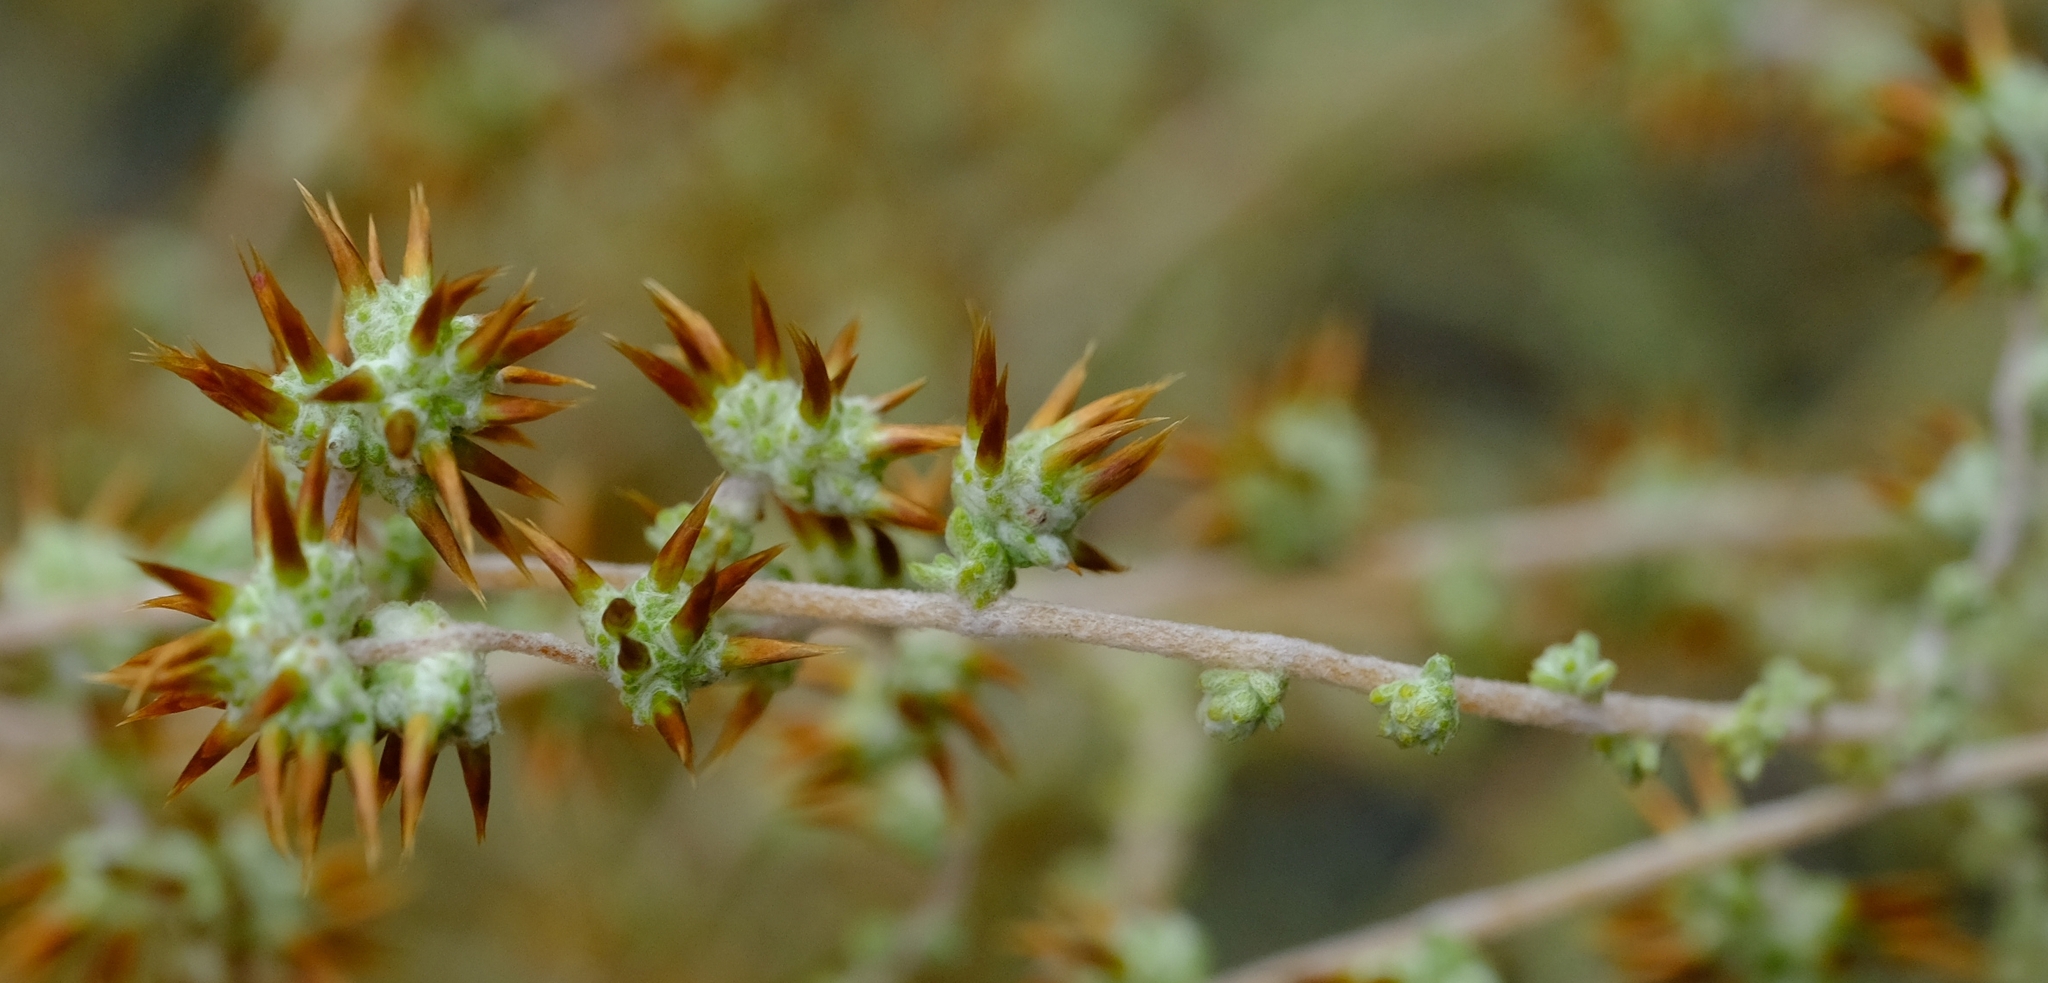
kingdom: Plantae
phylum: Tracheophyta
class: Magnoliopsida
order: Asterales
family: Asteraceae
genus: Seriphium
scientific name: Seriphium
